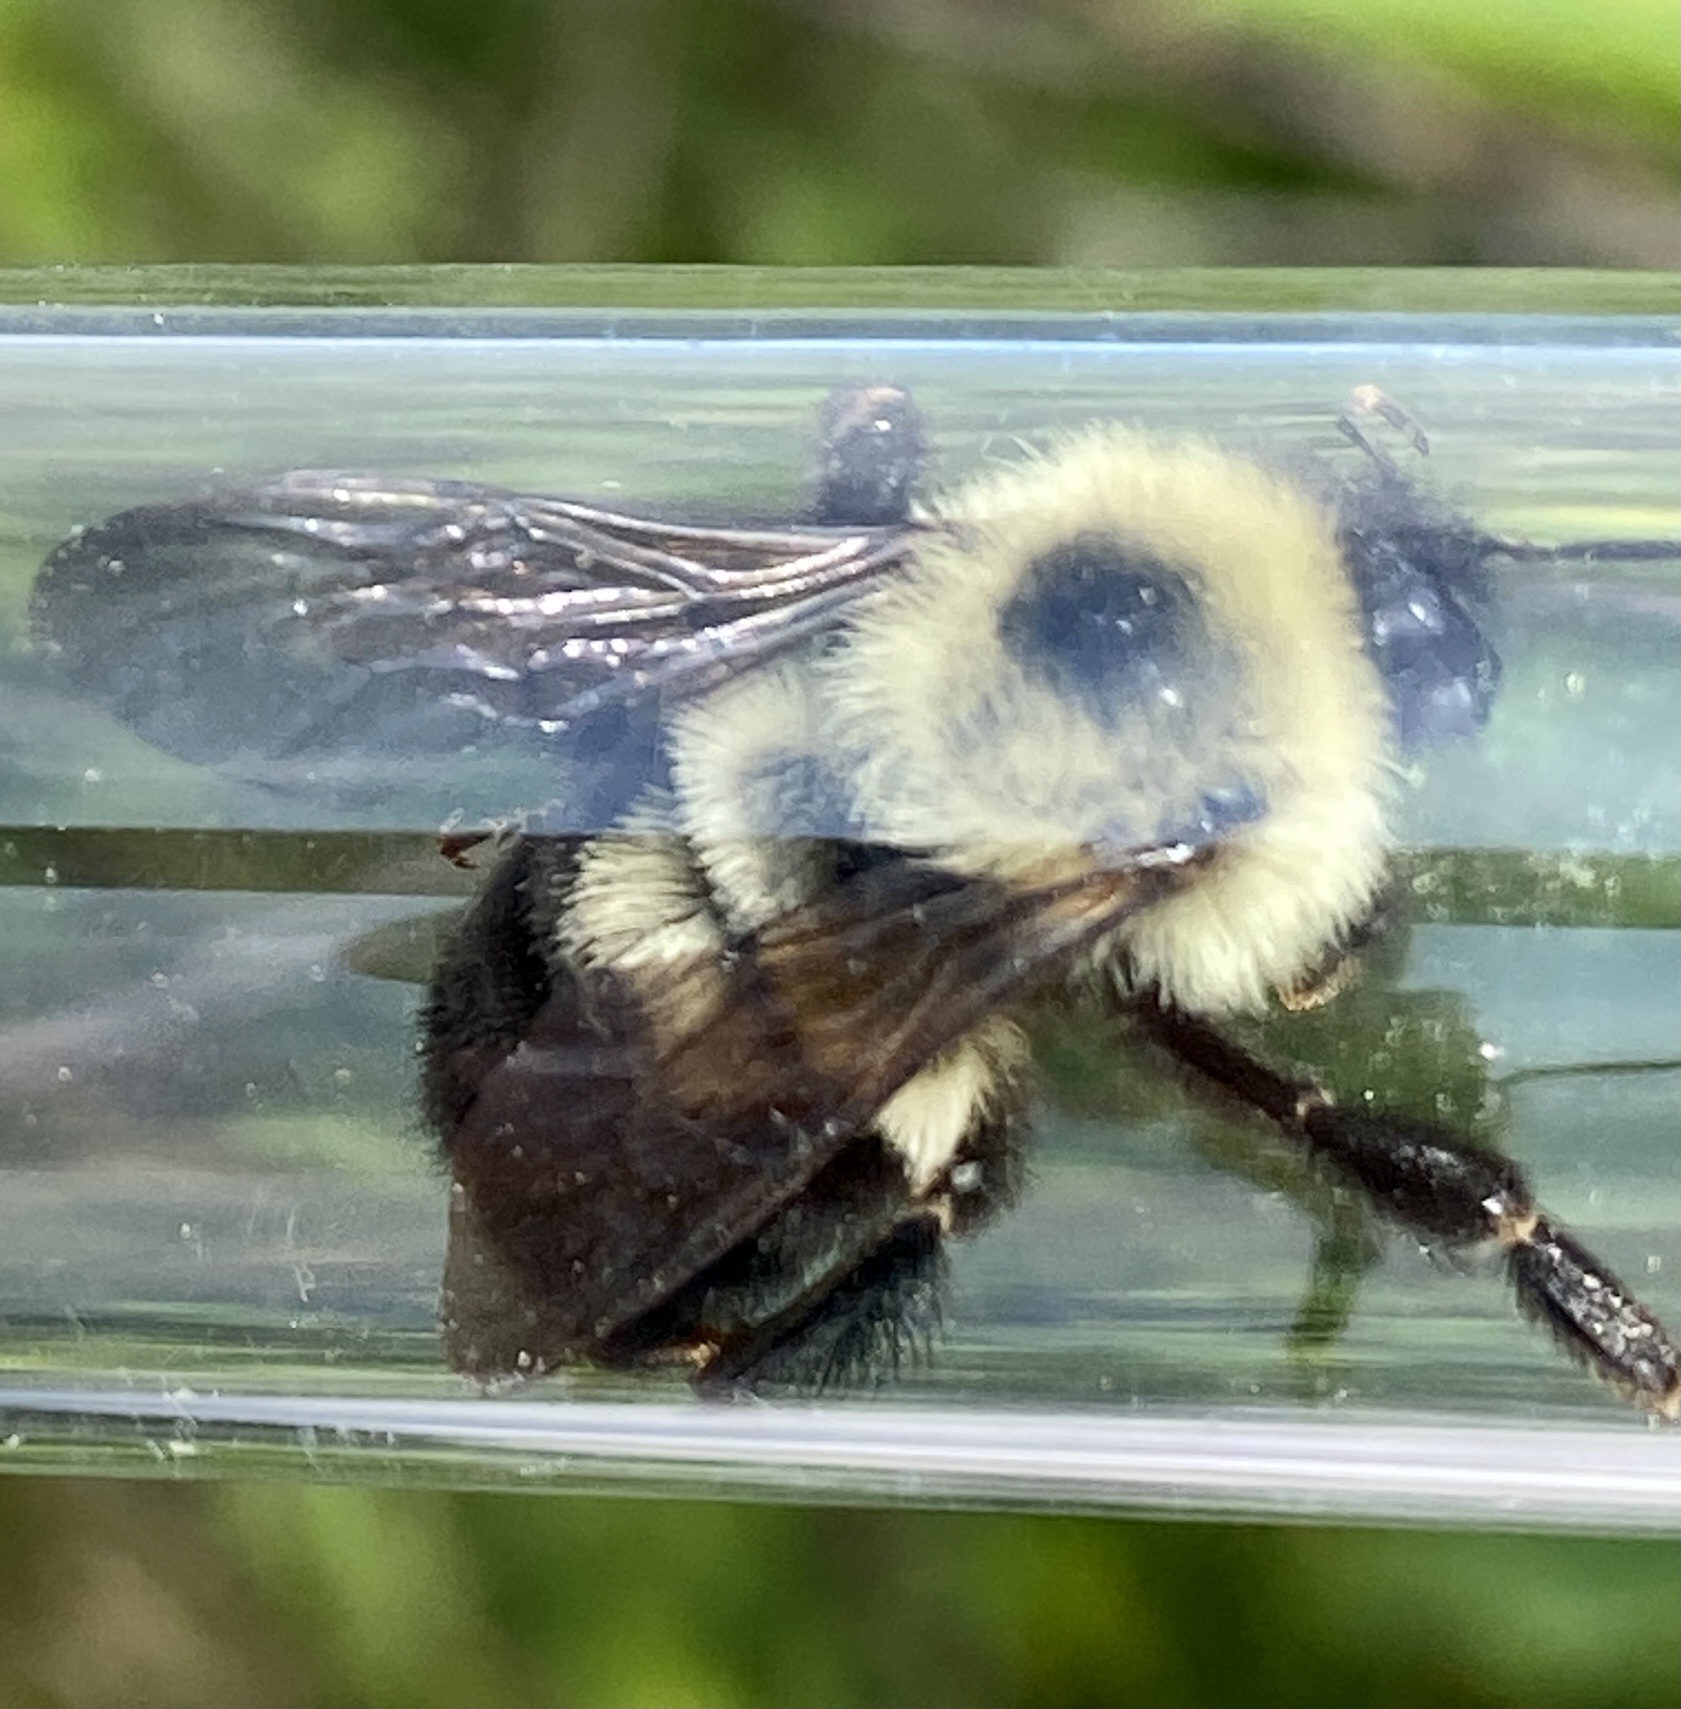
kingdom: Animalia
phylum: Arthropoda
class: Insecta
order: Hymenoptera
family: Apidae
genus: Bombus
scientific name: Bombus bimaculatus
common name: Two-spotted bumble bee
